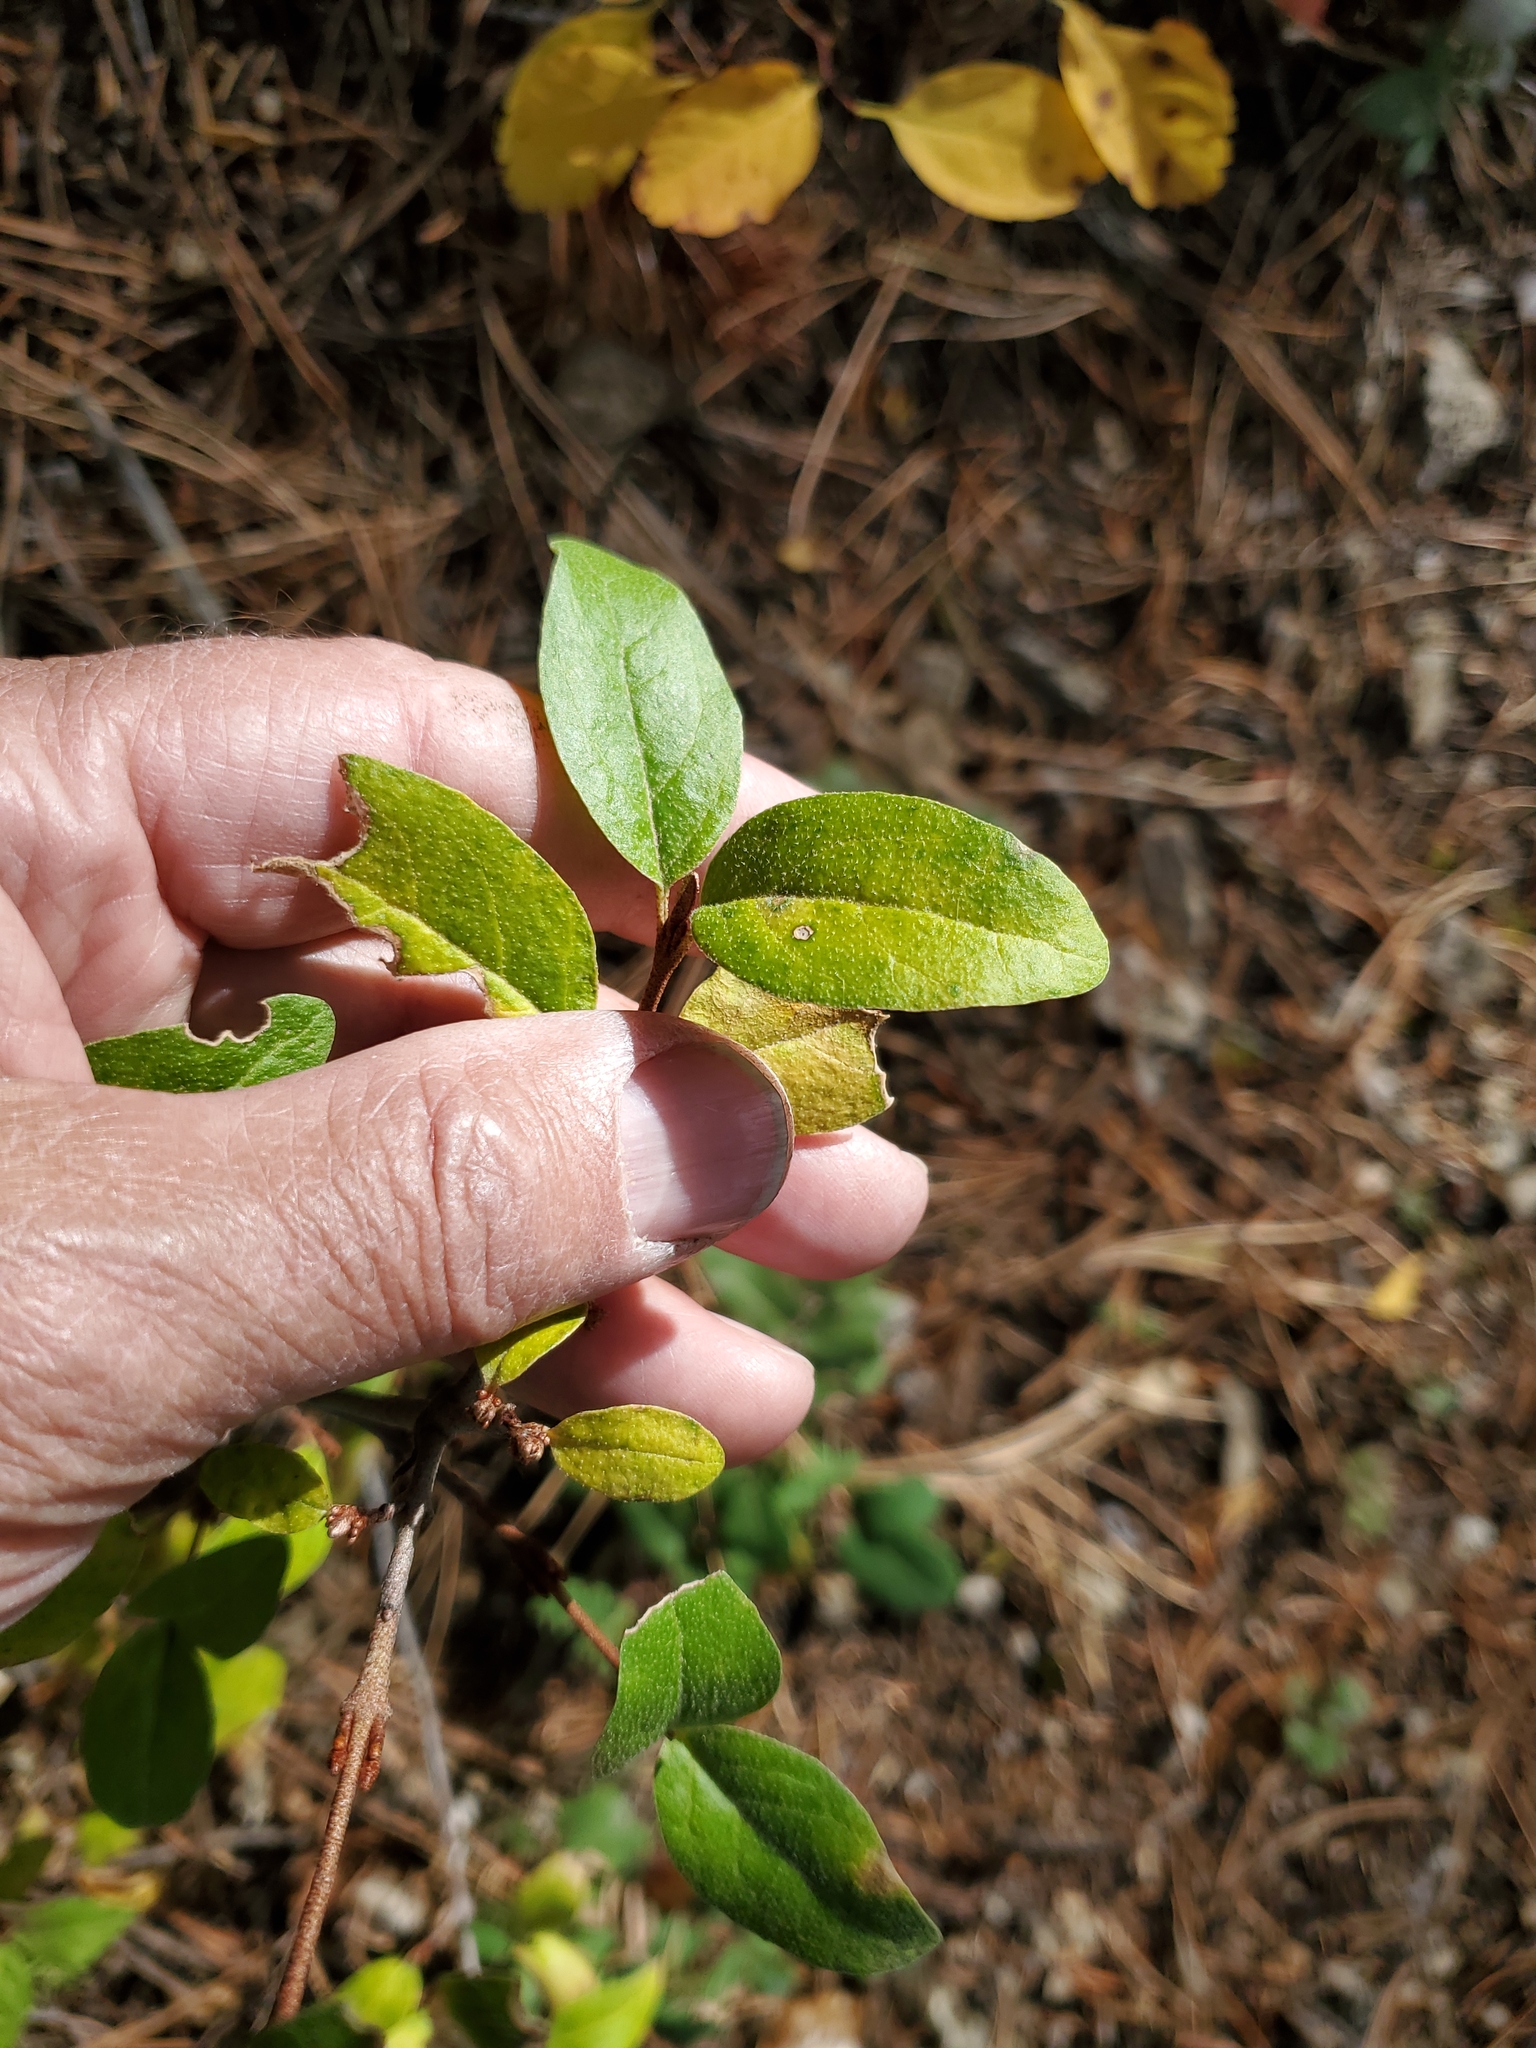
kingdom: Plantae
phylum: Tracheophyta
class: Magnoliopsida
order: Rosales
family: Elaeagnaceae
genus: Shepherdia
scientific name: Shepherdia canadensis
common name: Soapberry
